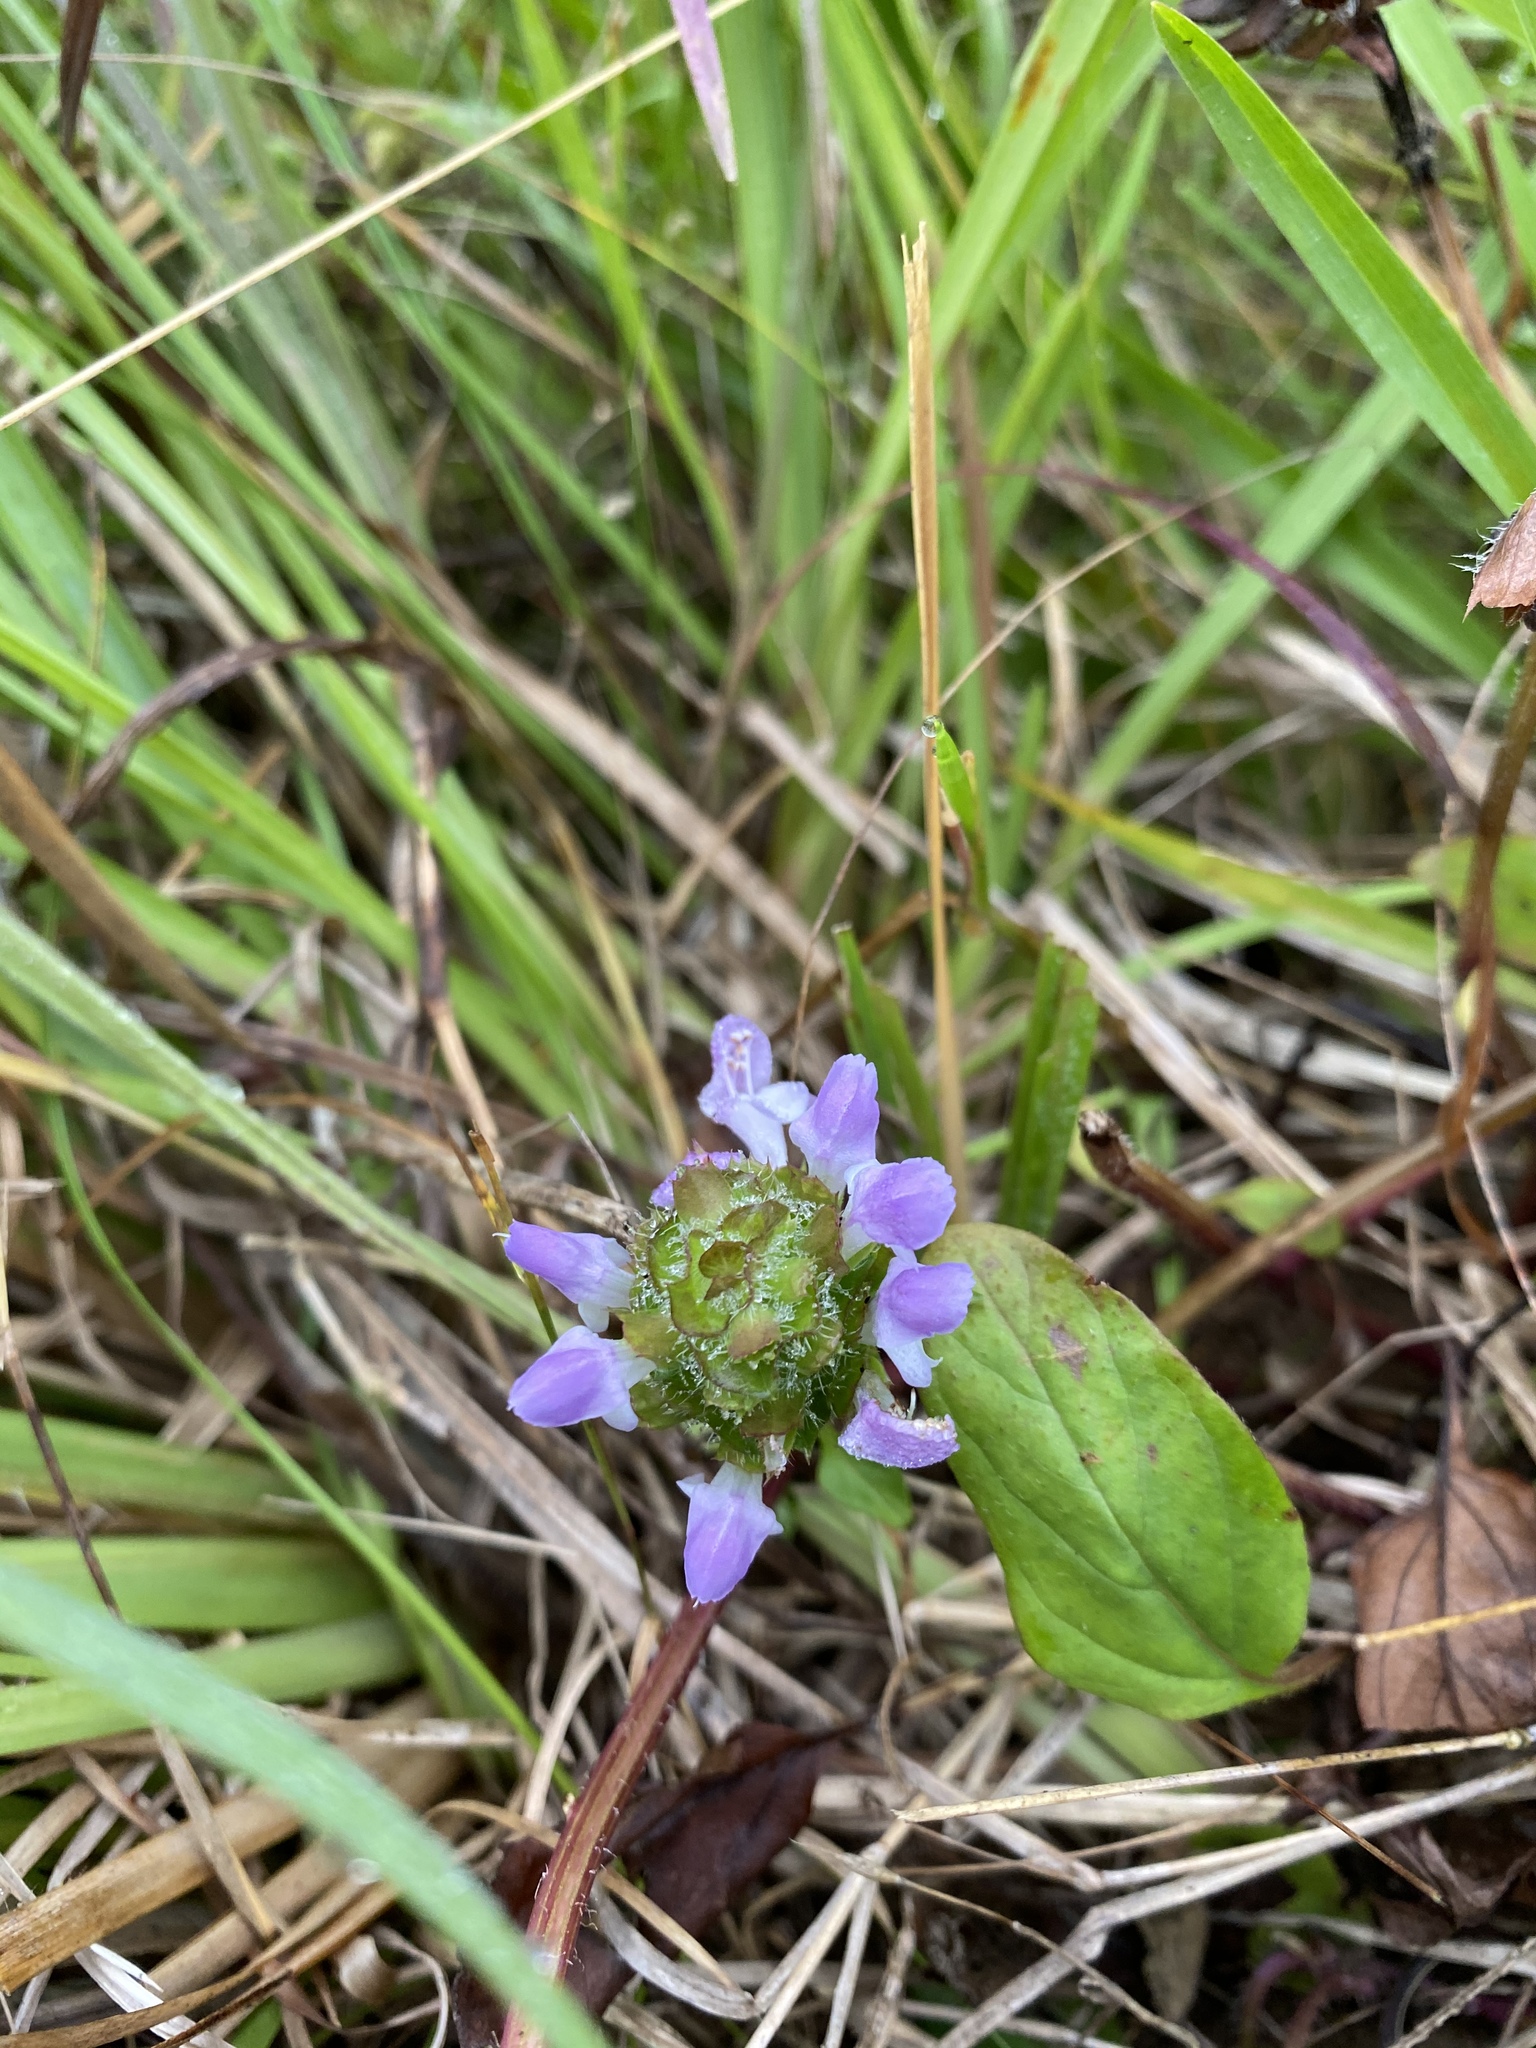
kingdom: Plantae
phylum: Tracheophyta
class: Magnoliopsida
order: Lamiales
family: Lamiaceae
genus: Prunella
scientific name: Prunella vulgaris
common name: Heal-all
